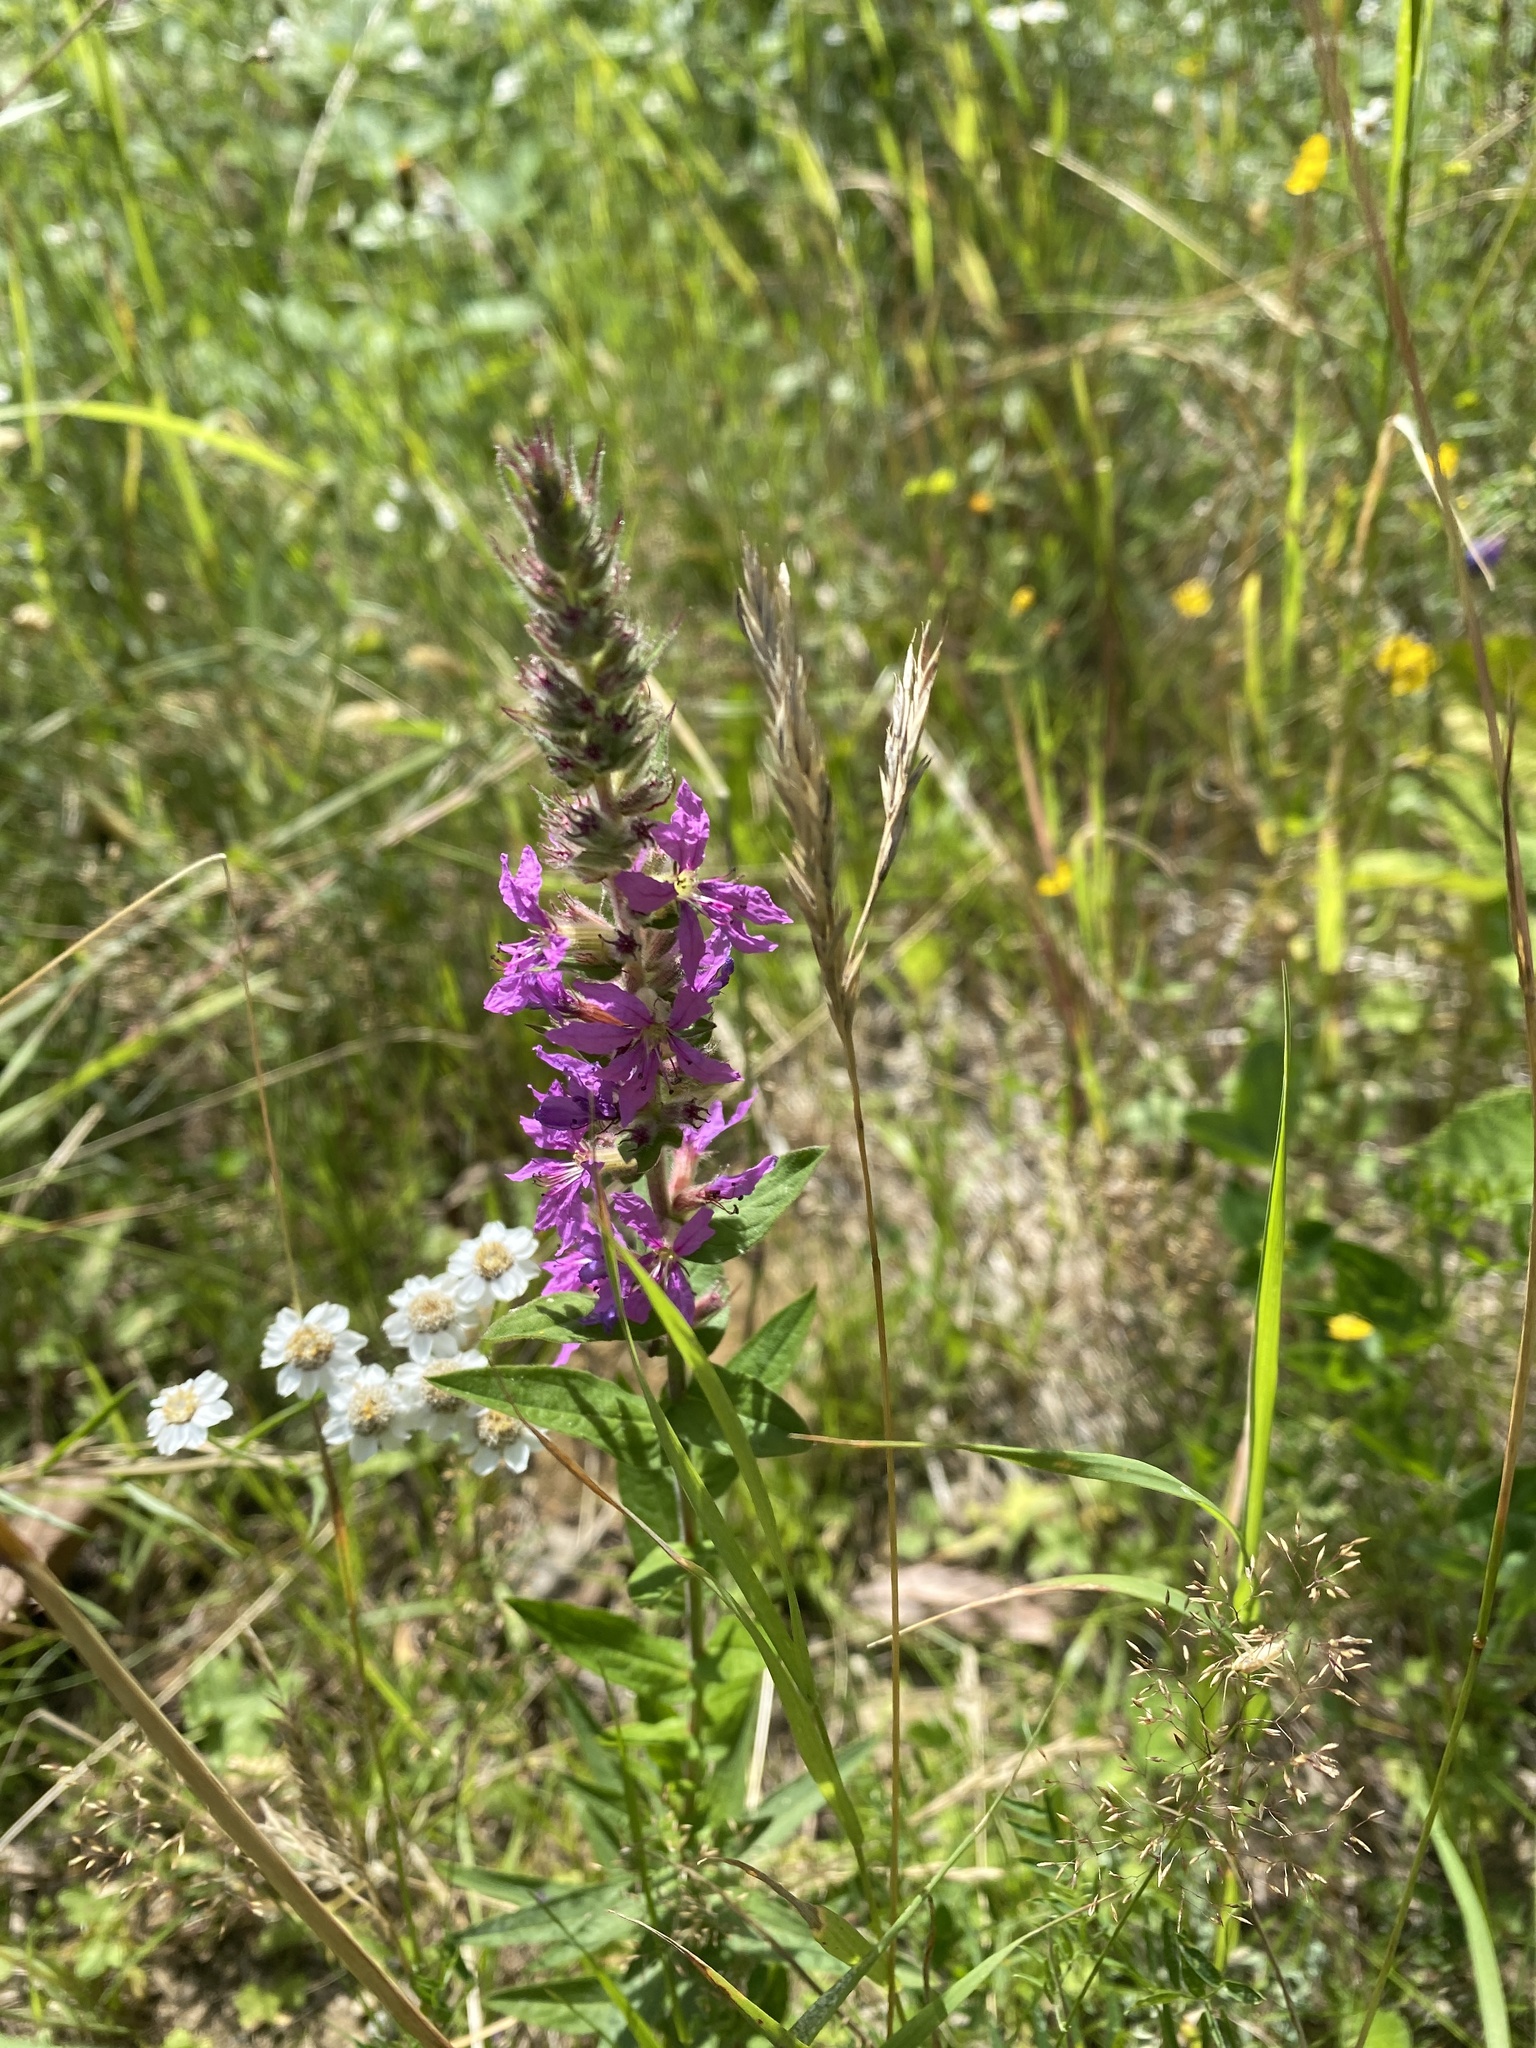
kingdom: Plantae
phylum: Tracheophyta
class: Magnoliopsida
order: Myrtales
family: Lythraceae
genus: Lythrum
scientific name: Lythrum salicaria
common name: Purple loosestrife
